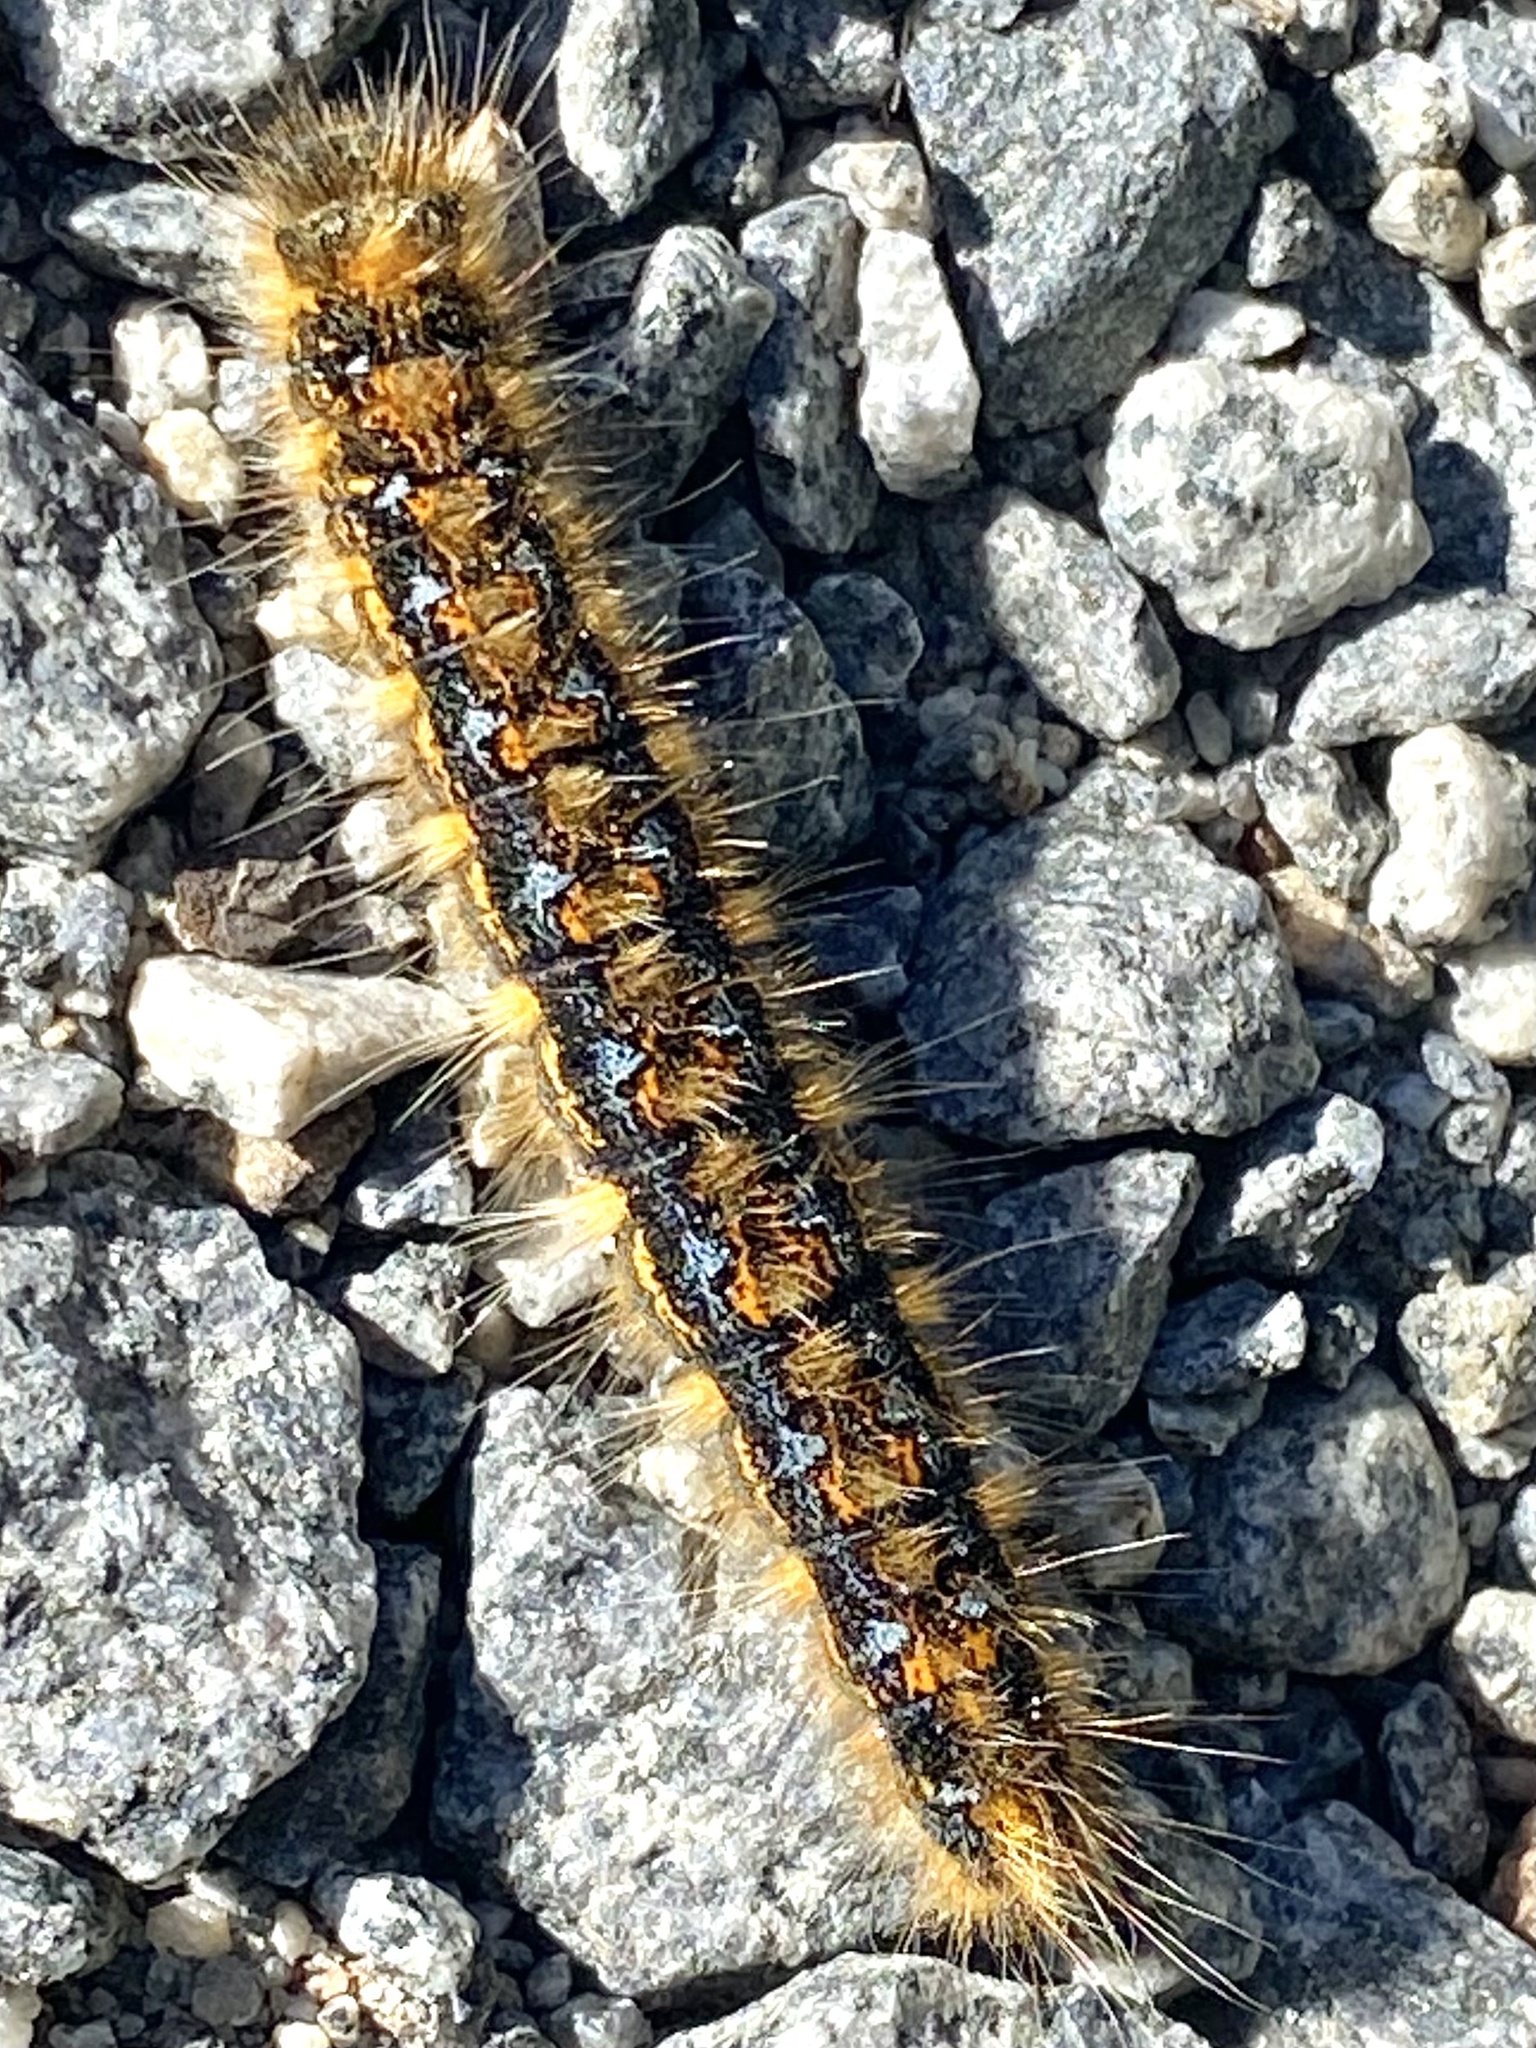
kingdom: Animalia
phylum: Arthropoda
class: Insecta
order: Lepidoptera
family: Lasiocampidae
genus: Malacosoma
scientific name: Malacosoma constricta
